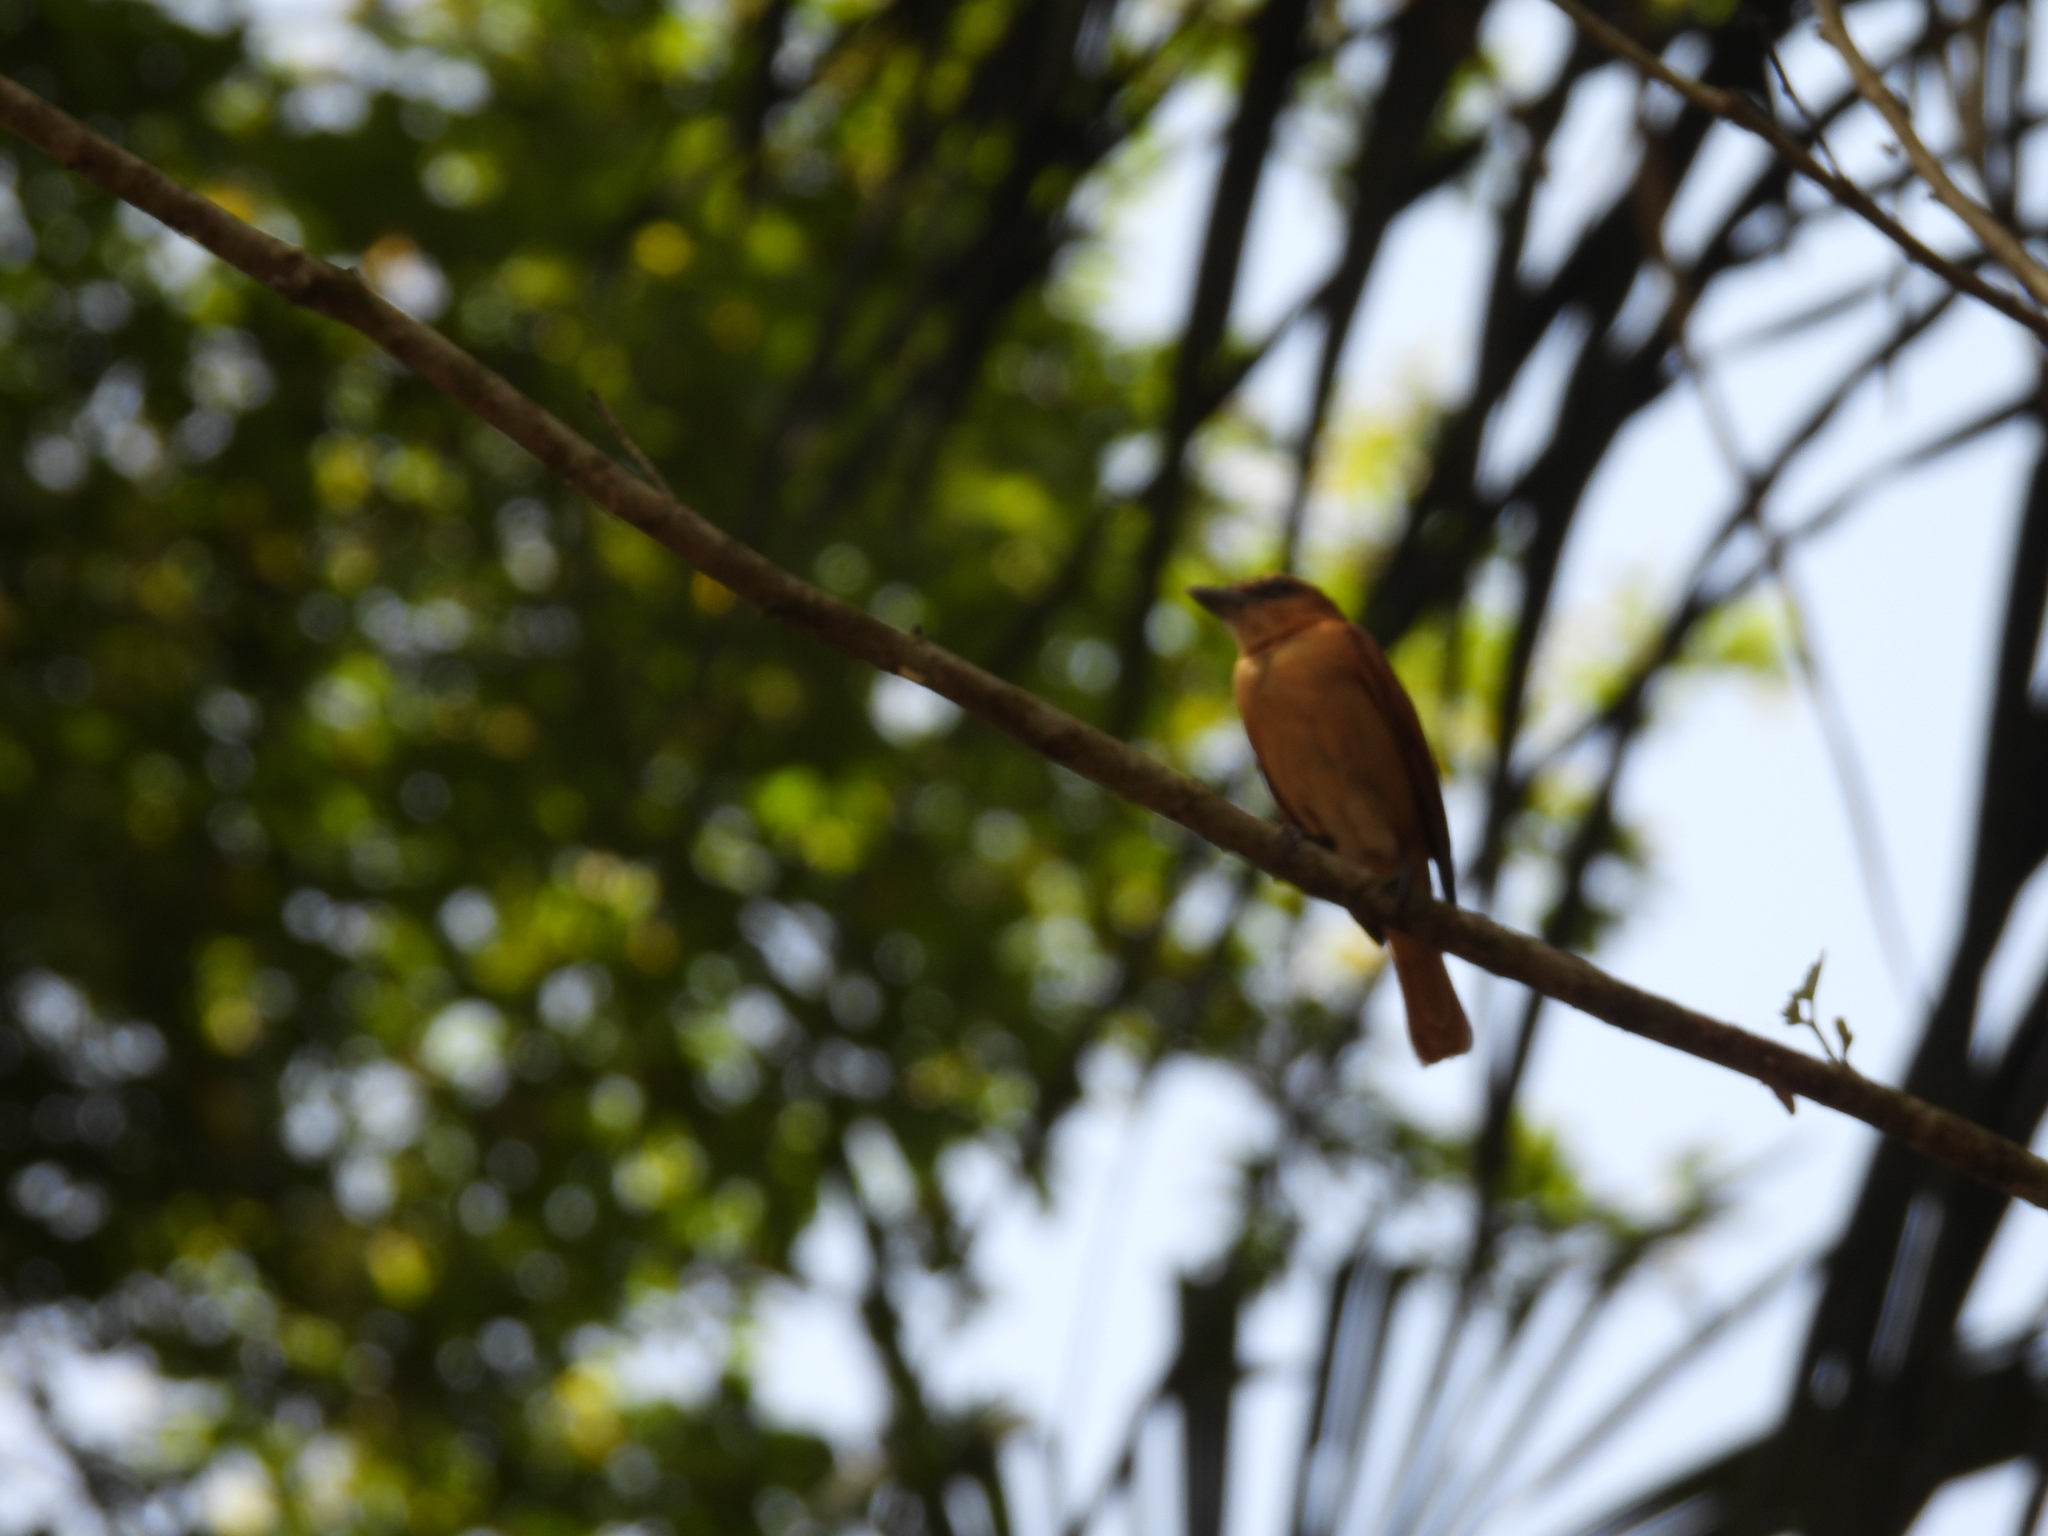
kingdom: Animalia
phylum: Chordata
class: Aves
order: Passeriformes
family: Cotingidae
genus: Pachyramphus
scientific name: Pachyramphus cinnamomeus
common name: Cinnamon becard
